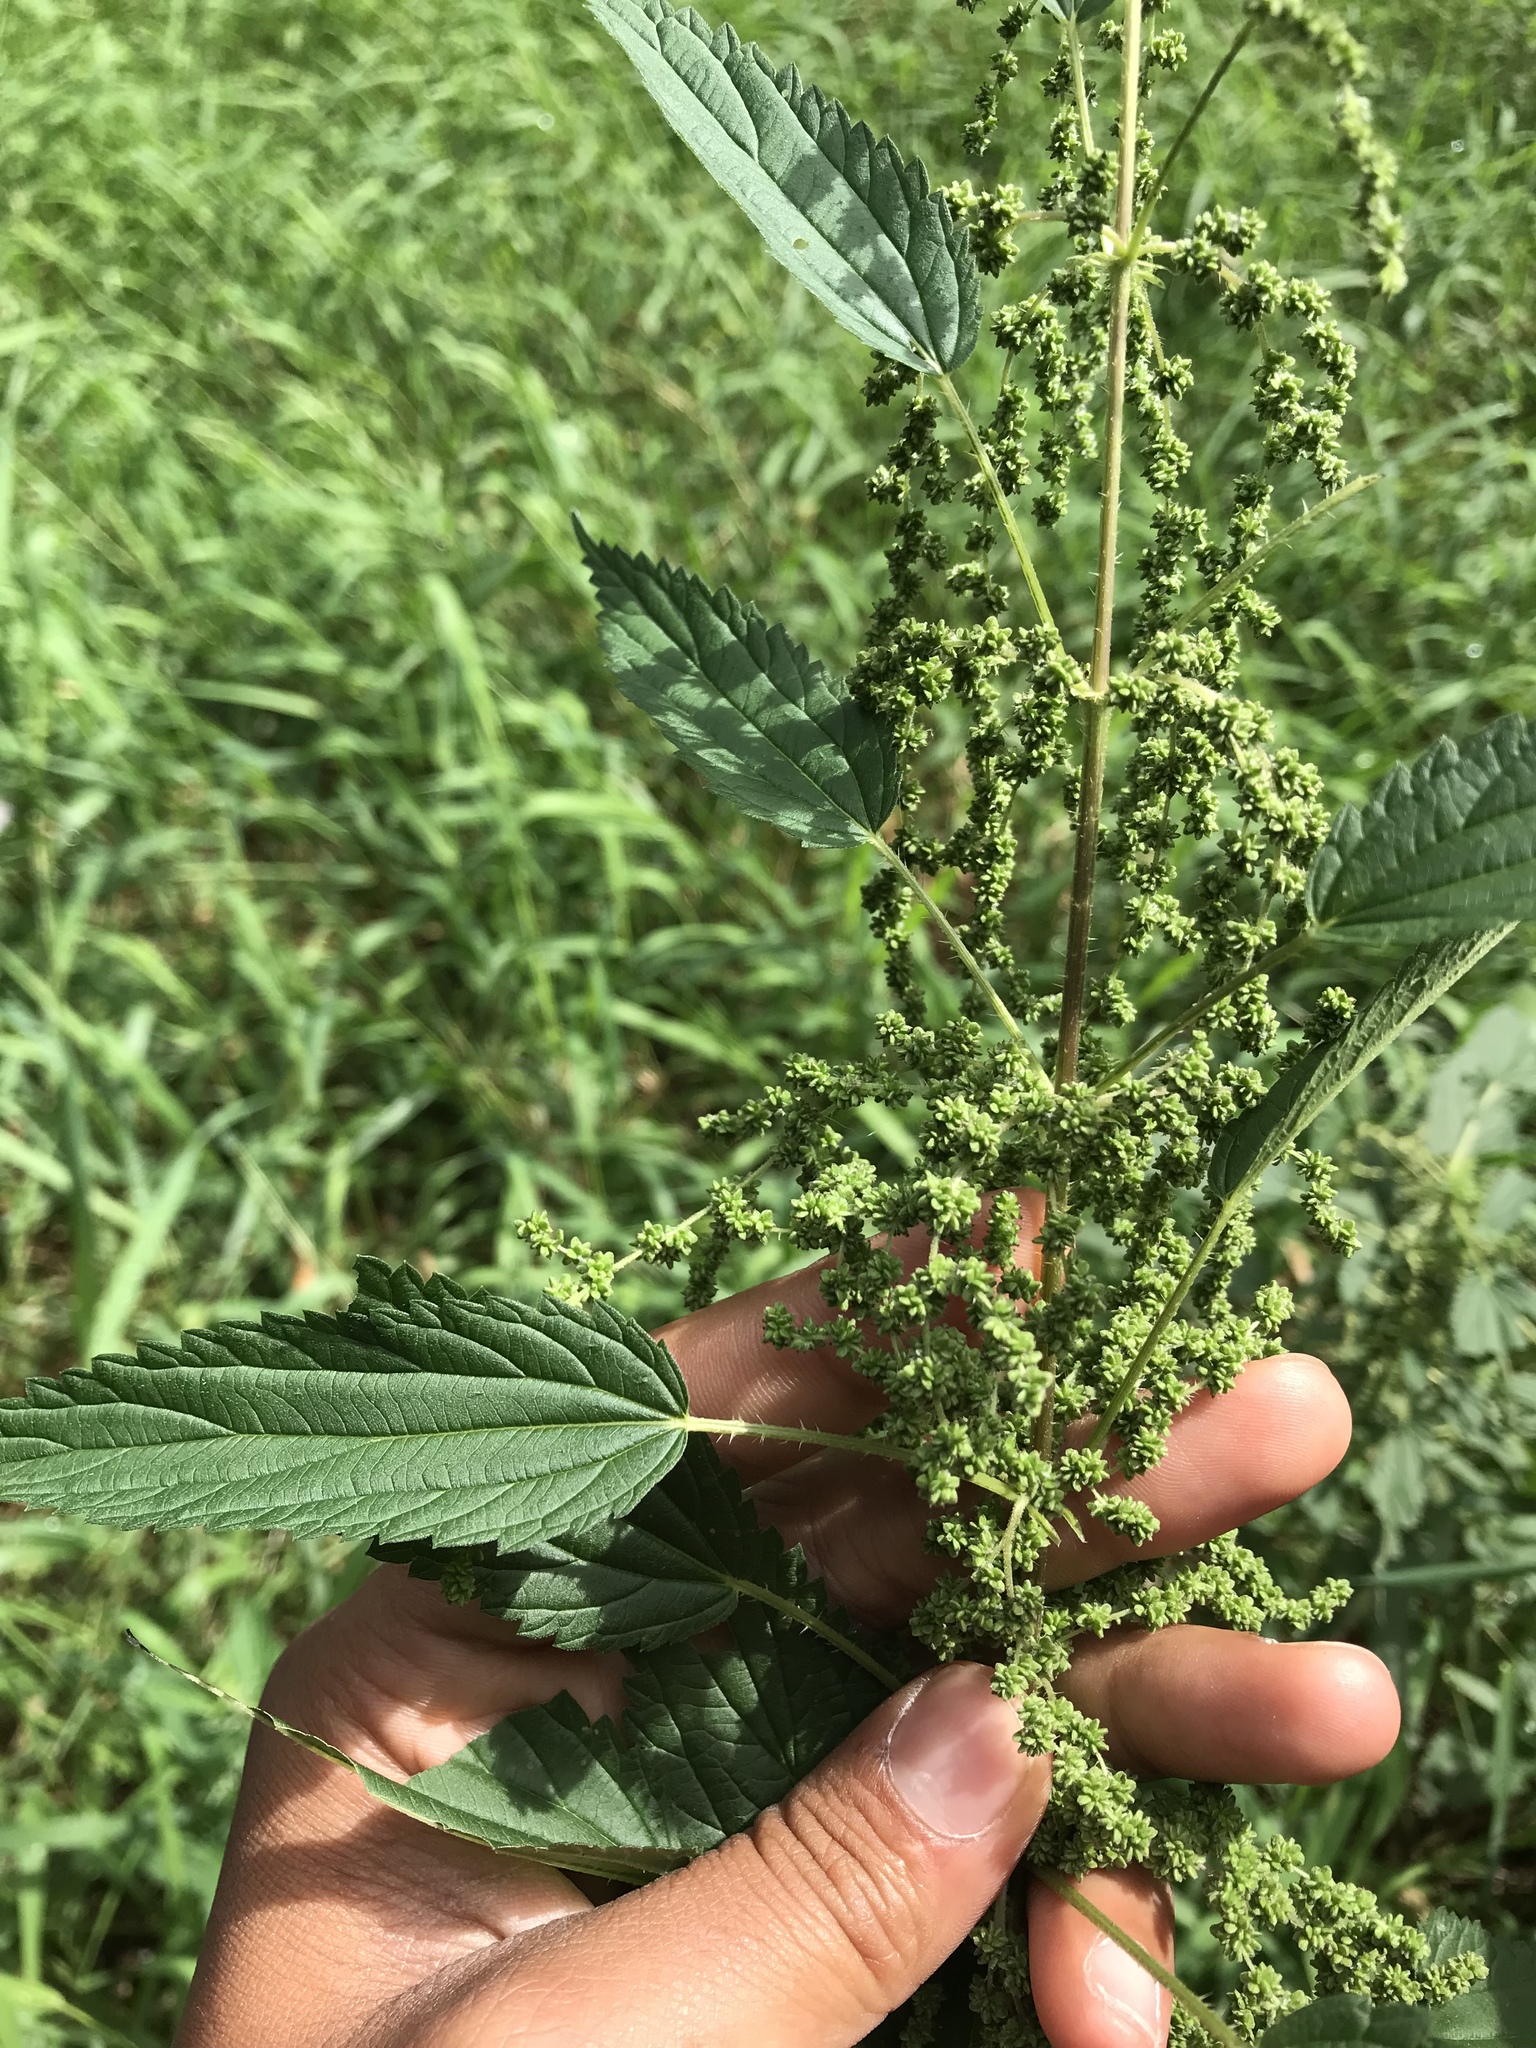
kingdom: Plantae
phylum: Tracheophyta
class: Magnoliopsida
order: Rosales
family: Urticaceae
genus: Urtica
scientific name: Urtica dioica
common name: Common nettle
